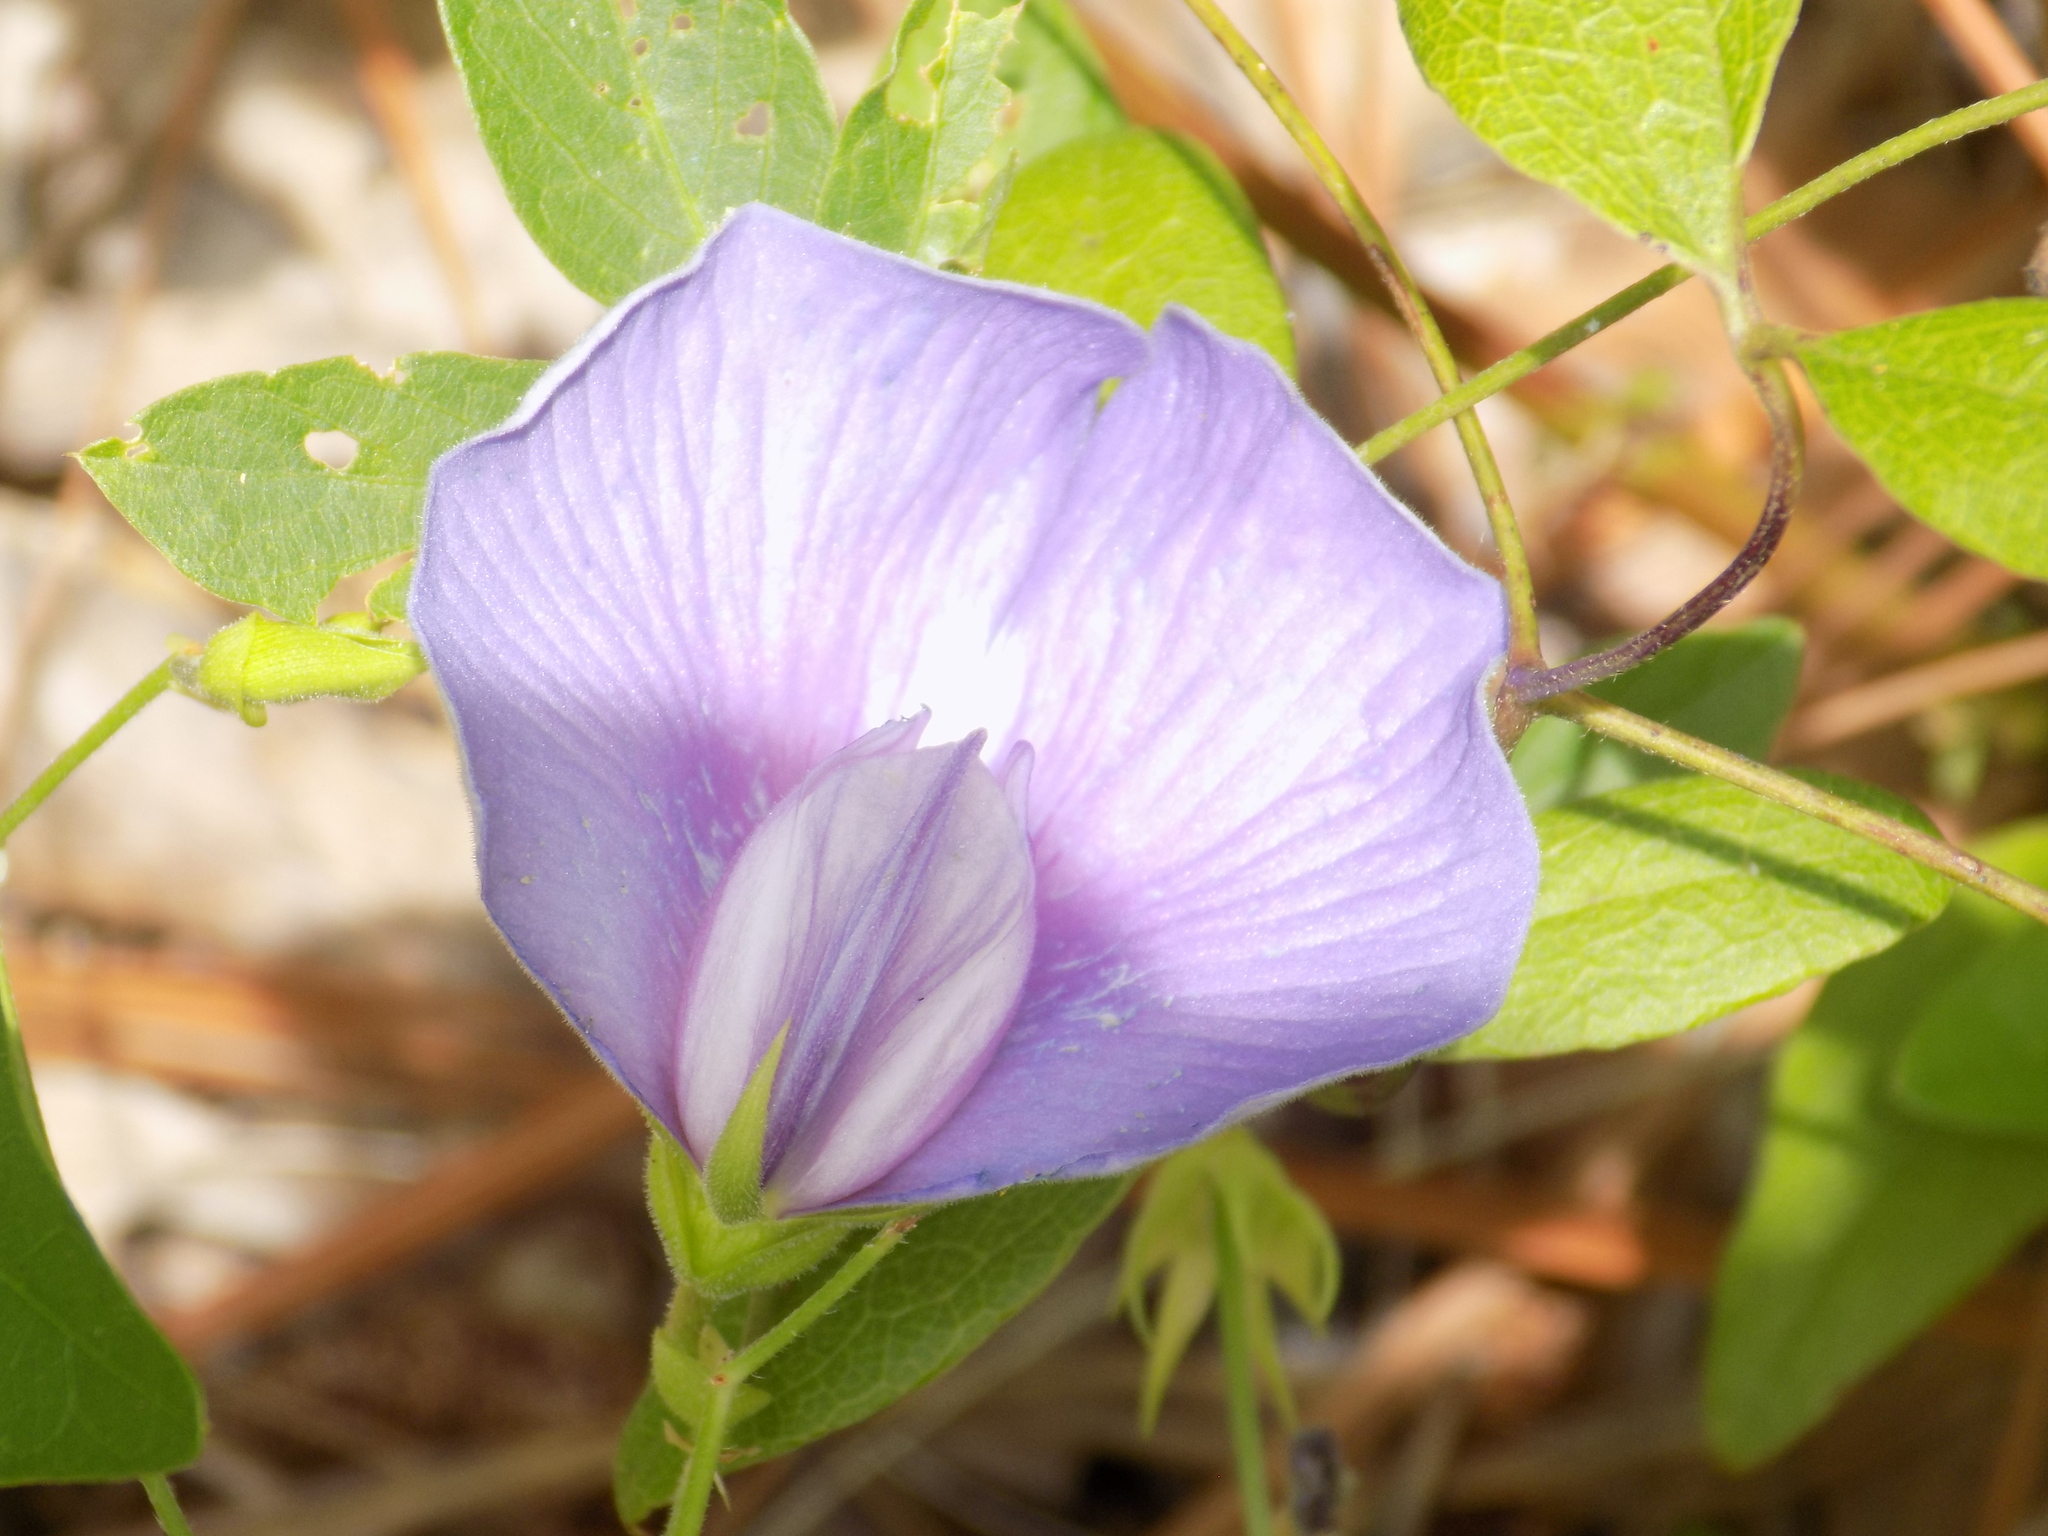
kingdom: Plantae
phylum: Tracheophyta
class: Magnoliopsida
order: Fabales
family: Fabaceae
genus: Centrosema
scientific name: Centrosema virginianum
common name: Butterfly-pea
